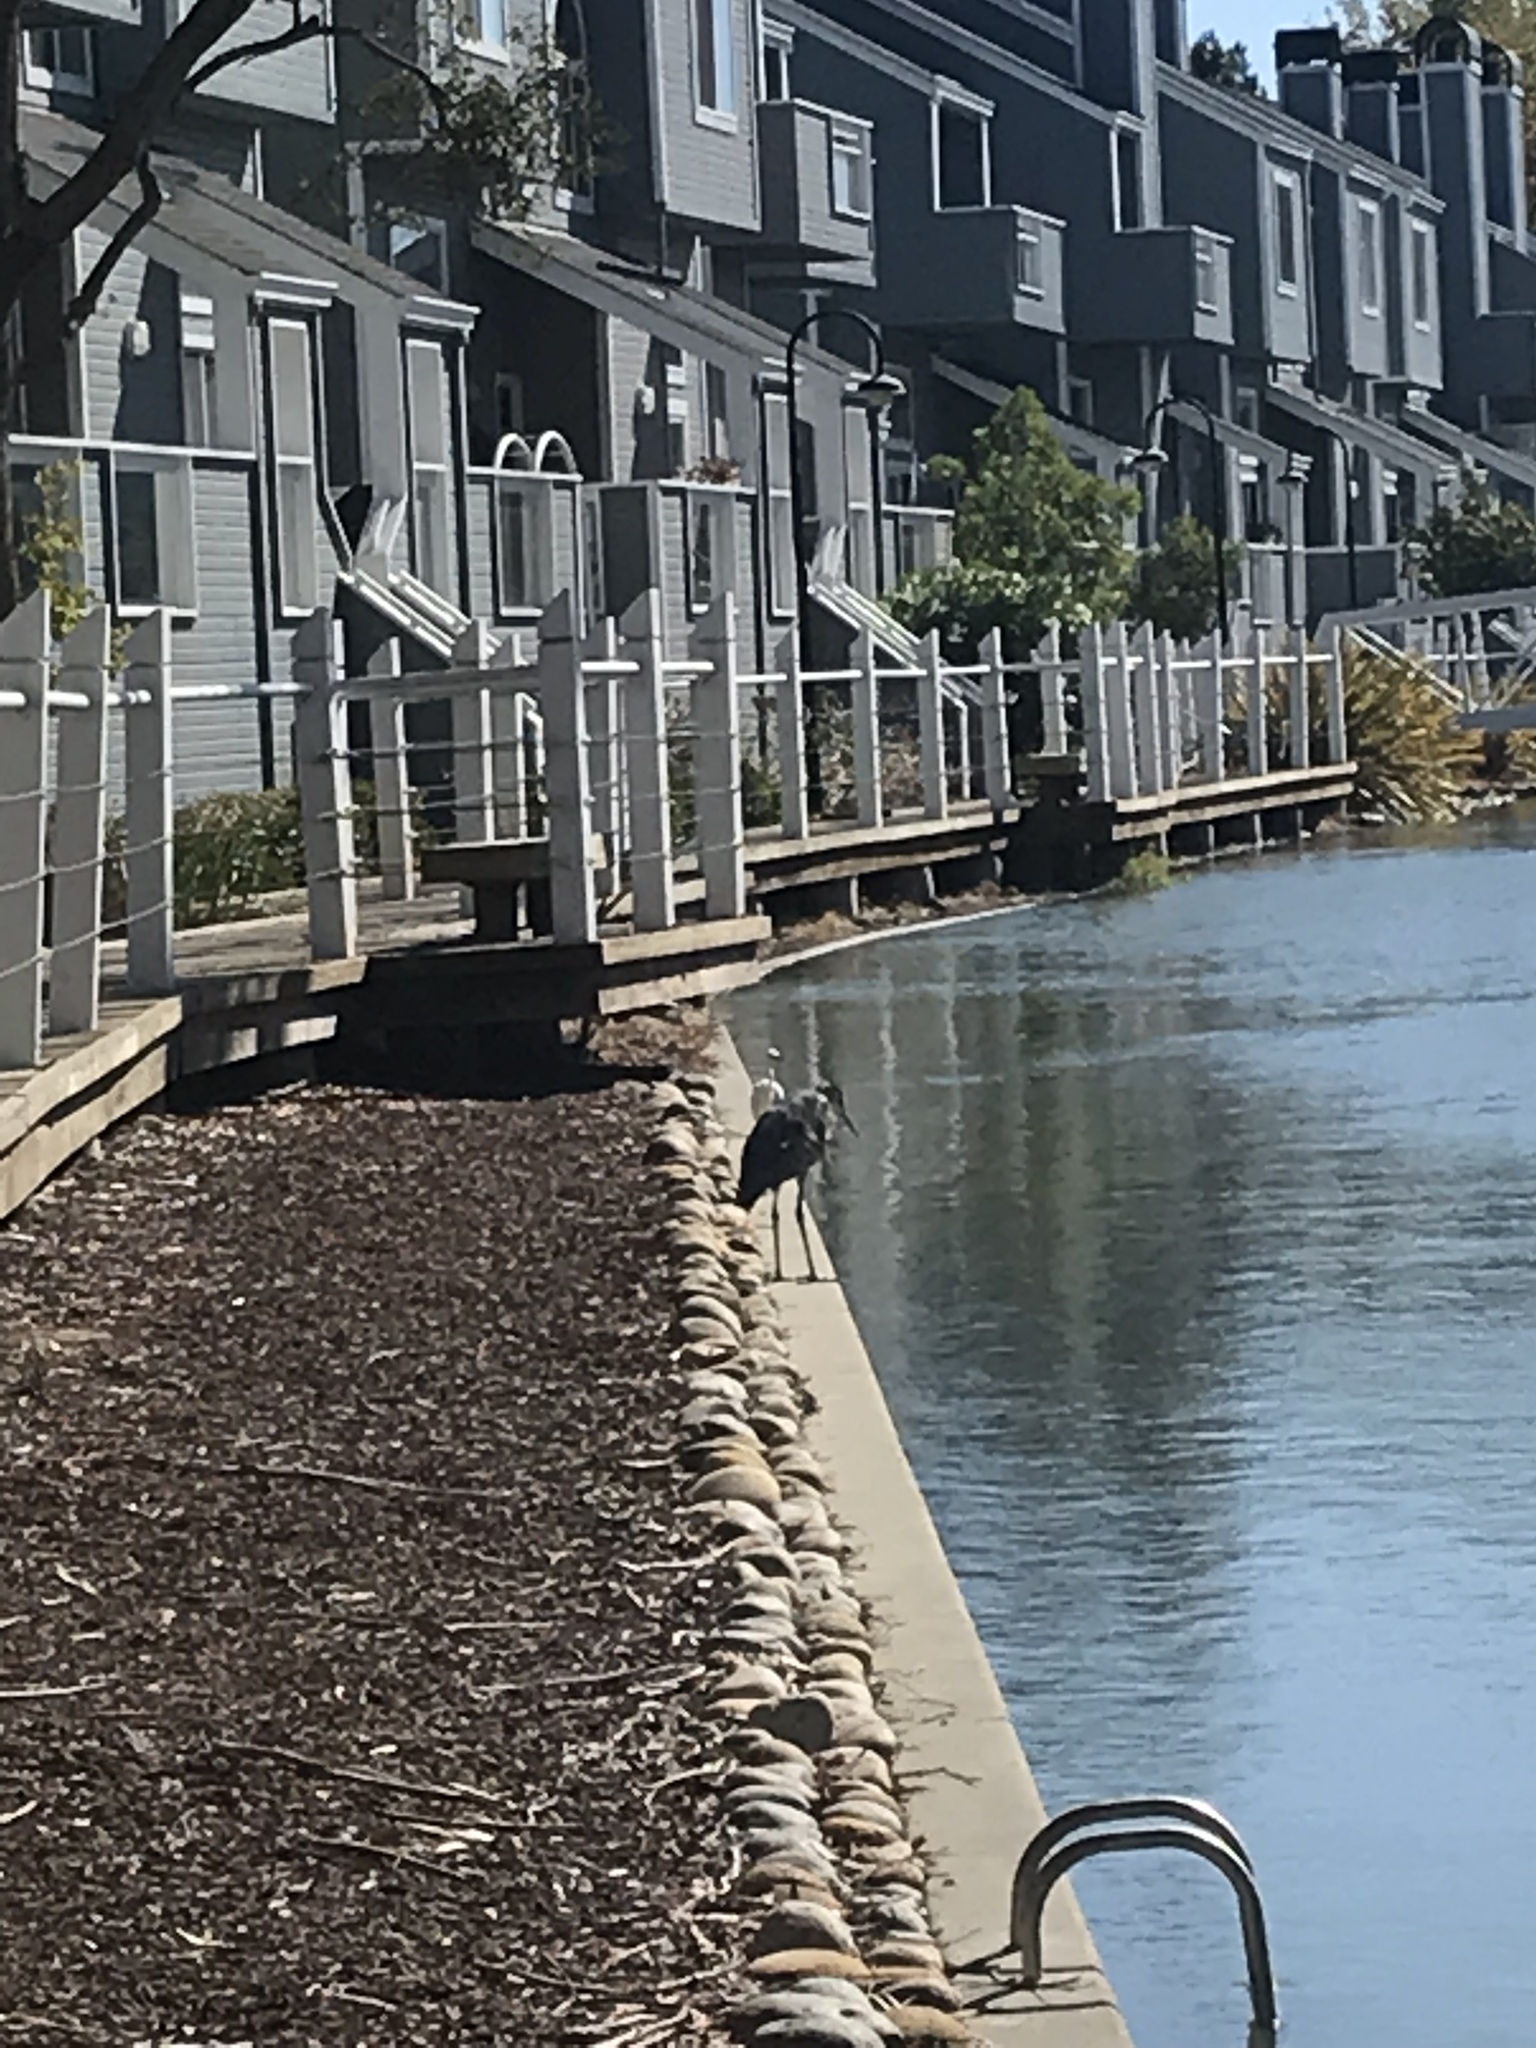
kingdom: Animalia
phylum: Chordata
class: Aves
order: Pelecaniformes
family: Ardeidae
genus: Ardea
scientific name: Ardea herodias
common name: Great blue heron
